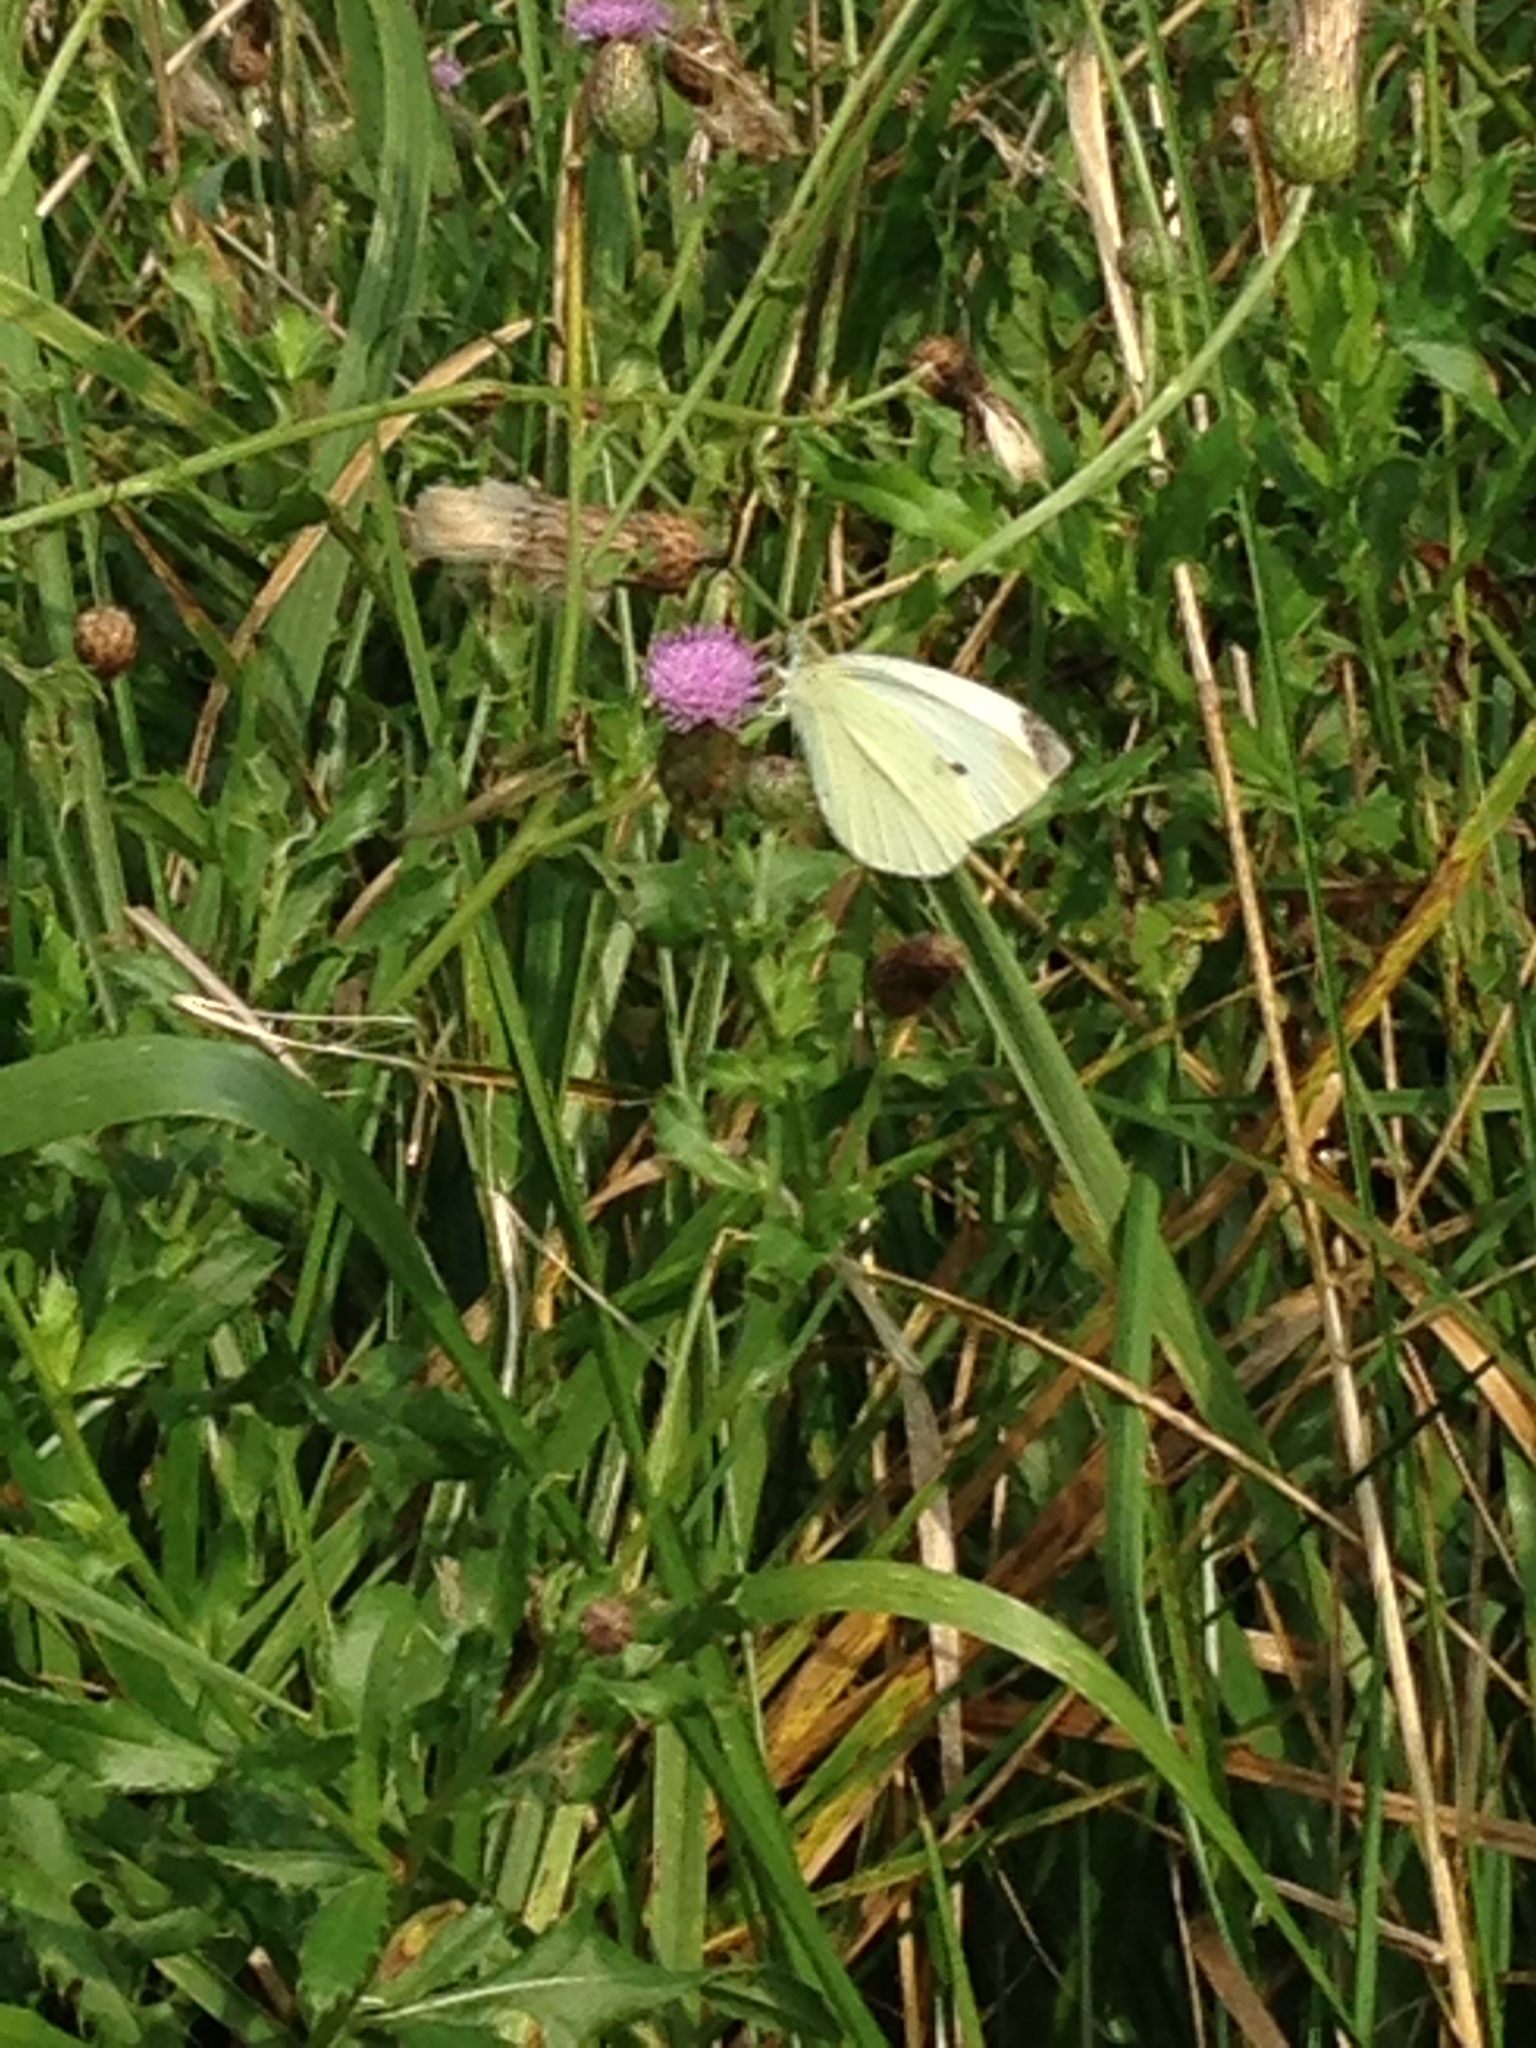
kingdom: Animalia
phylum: Arthropoda
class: Insecta
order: Lepidoptera
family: Pieridae
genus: Pieris
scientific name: Pieris rapae
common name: Small white
